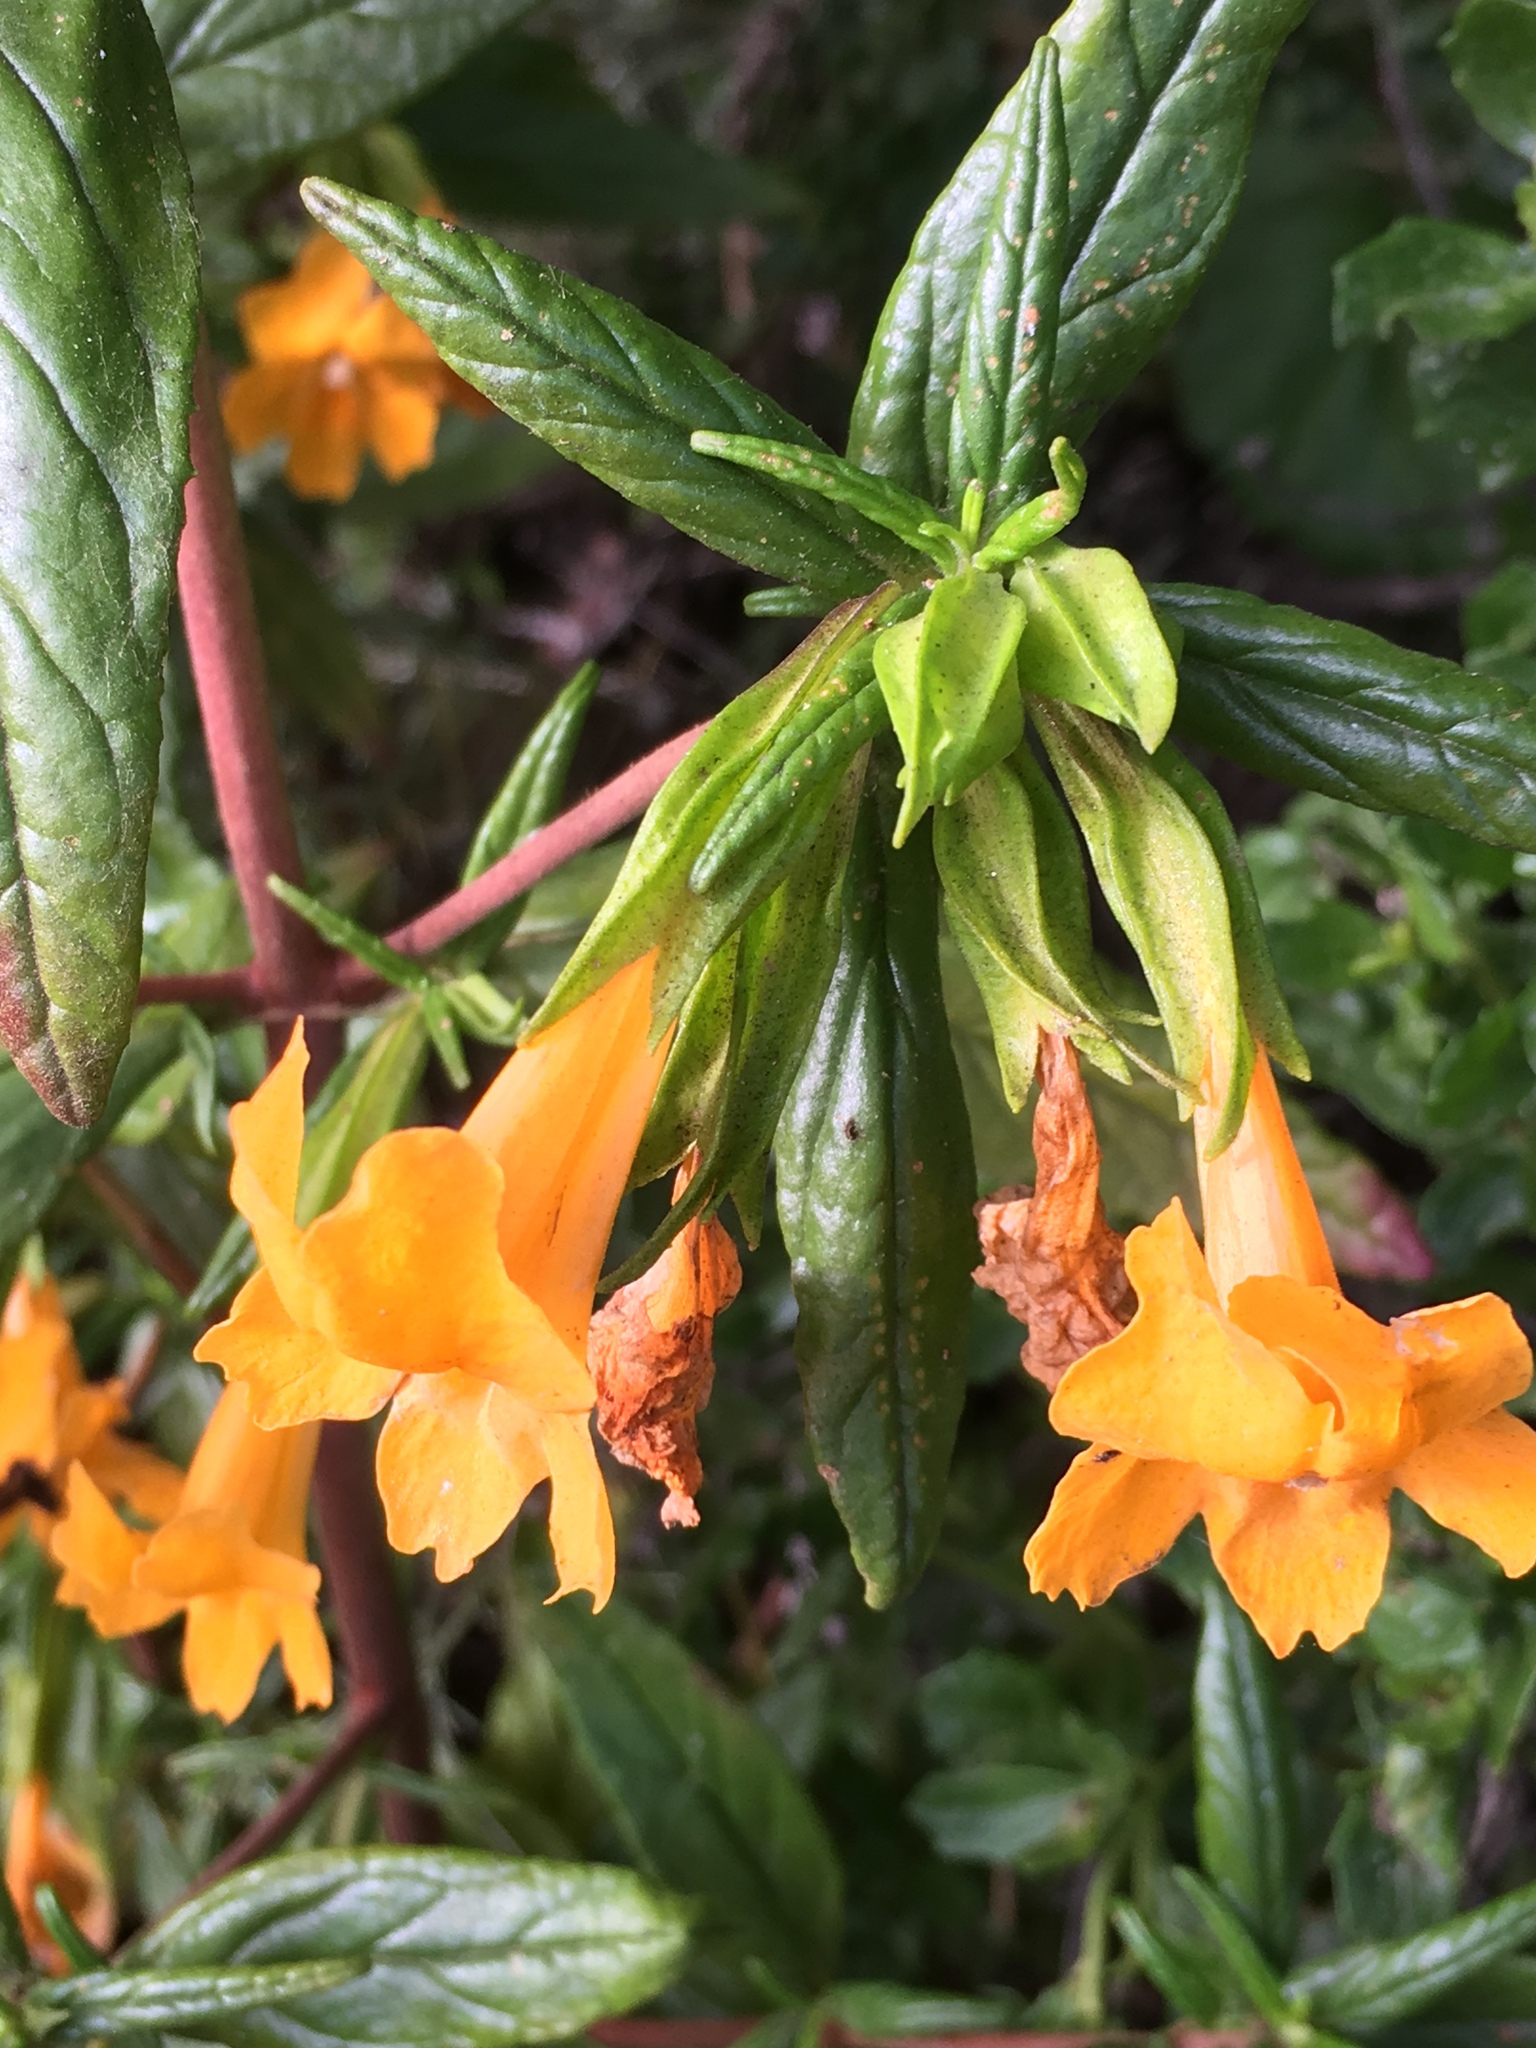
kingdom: Plantae
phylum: Tracheophyta
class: Magnoliopsida
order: Lamiales
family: Phrymaceae
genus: Diplacus
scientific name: Diplacus aurantiacus
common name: Bush monkey-flower
